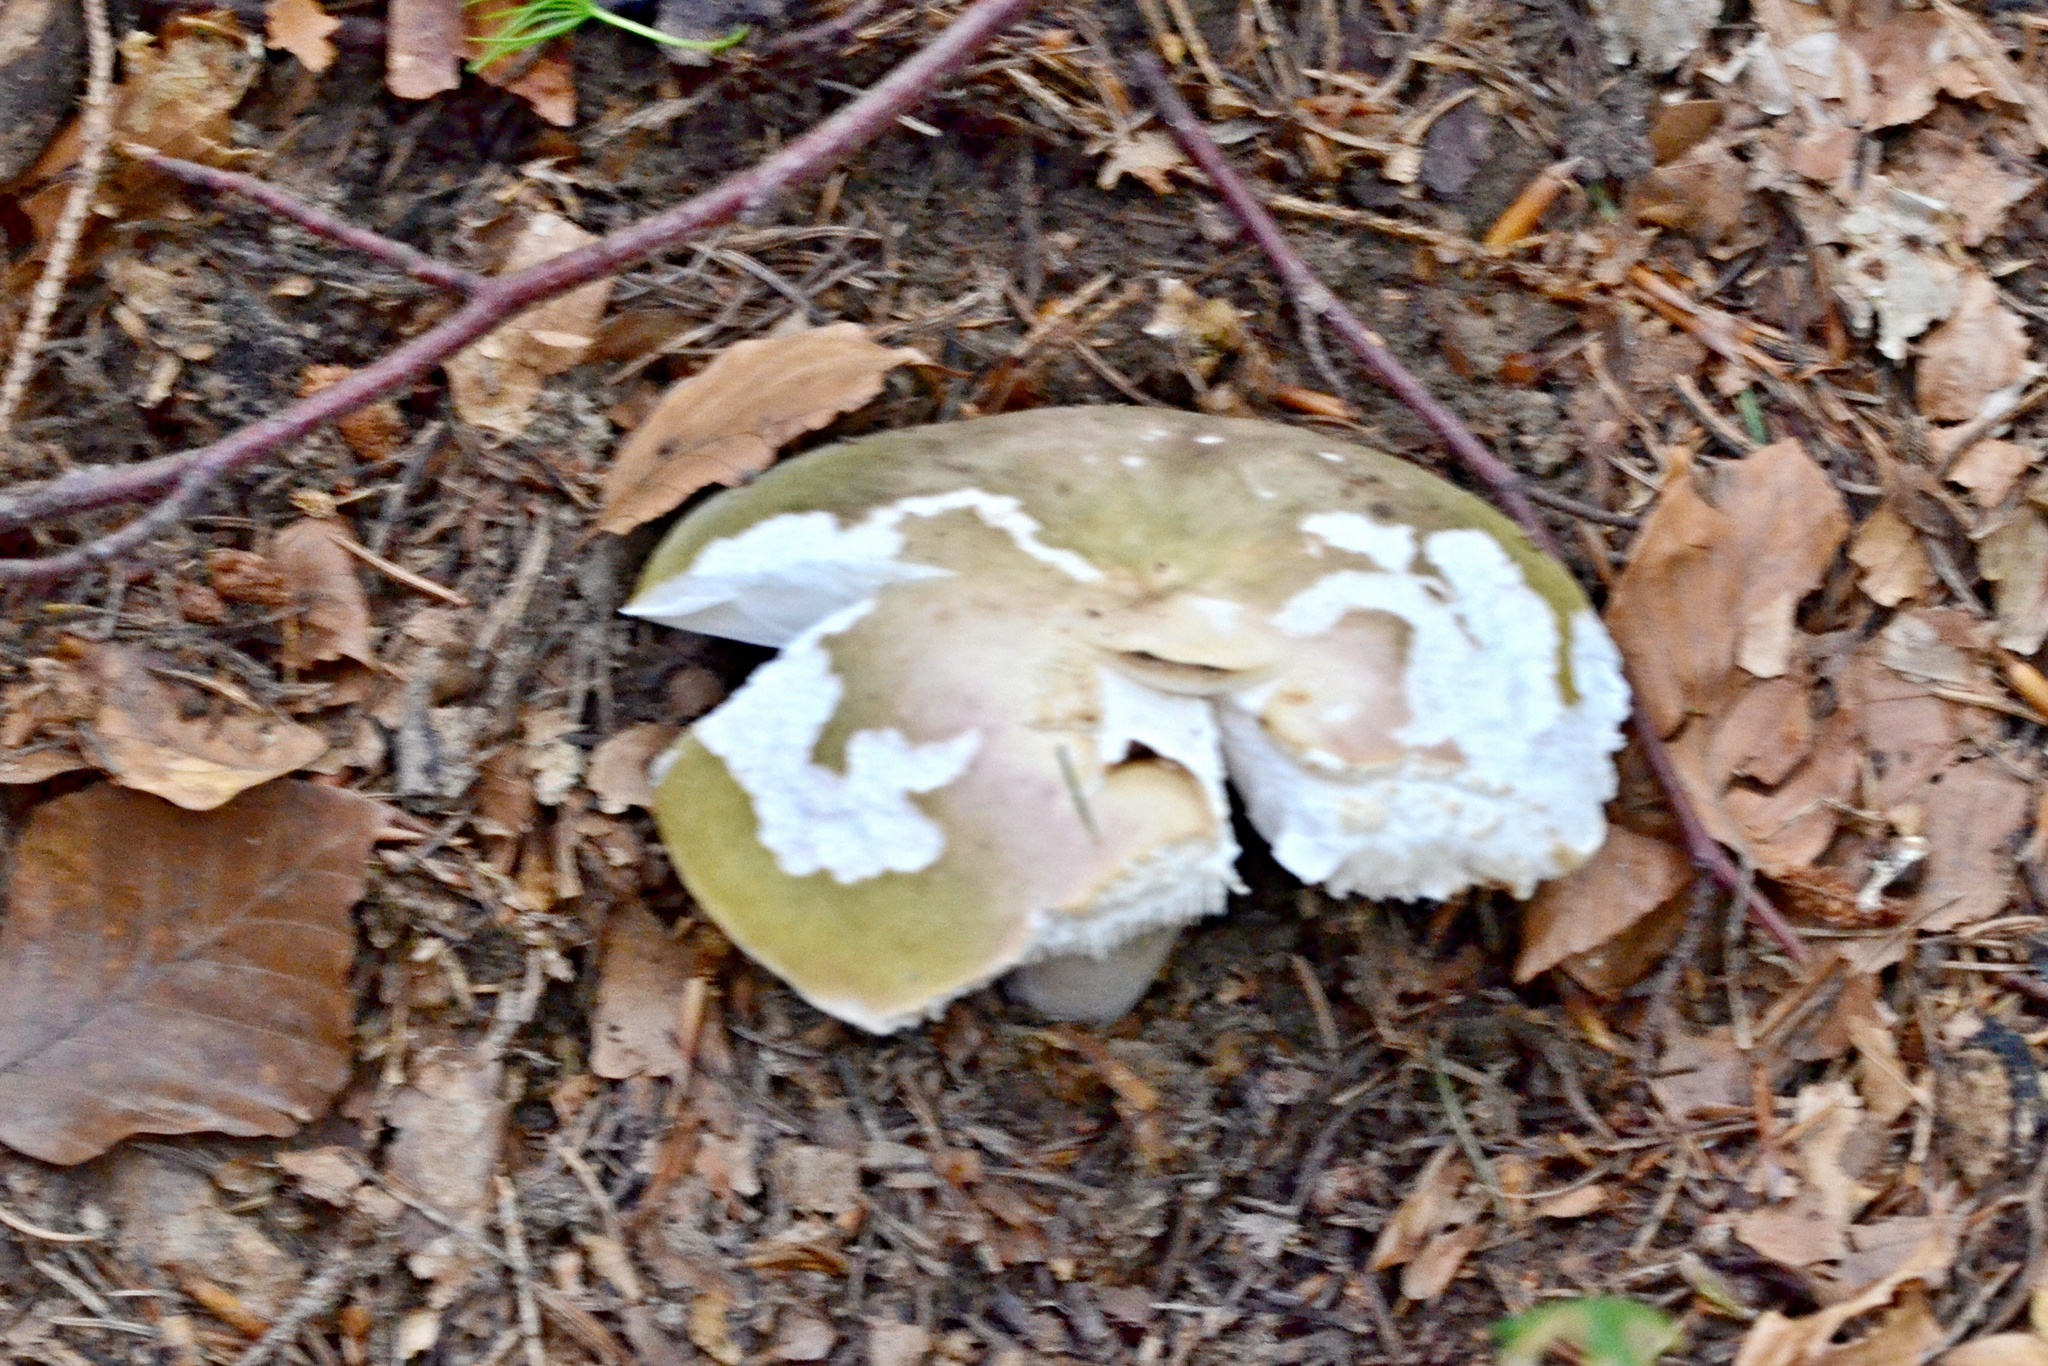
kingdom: Fungi
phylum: Basidiomycota
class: Agaricomycetes
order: Russulales
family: Russulaceae
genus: Russula
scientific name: Russula cyanoxantha
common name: Charcoal burner
